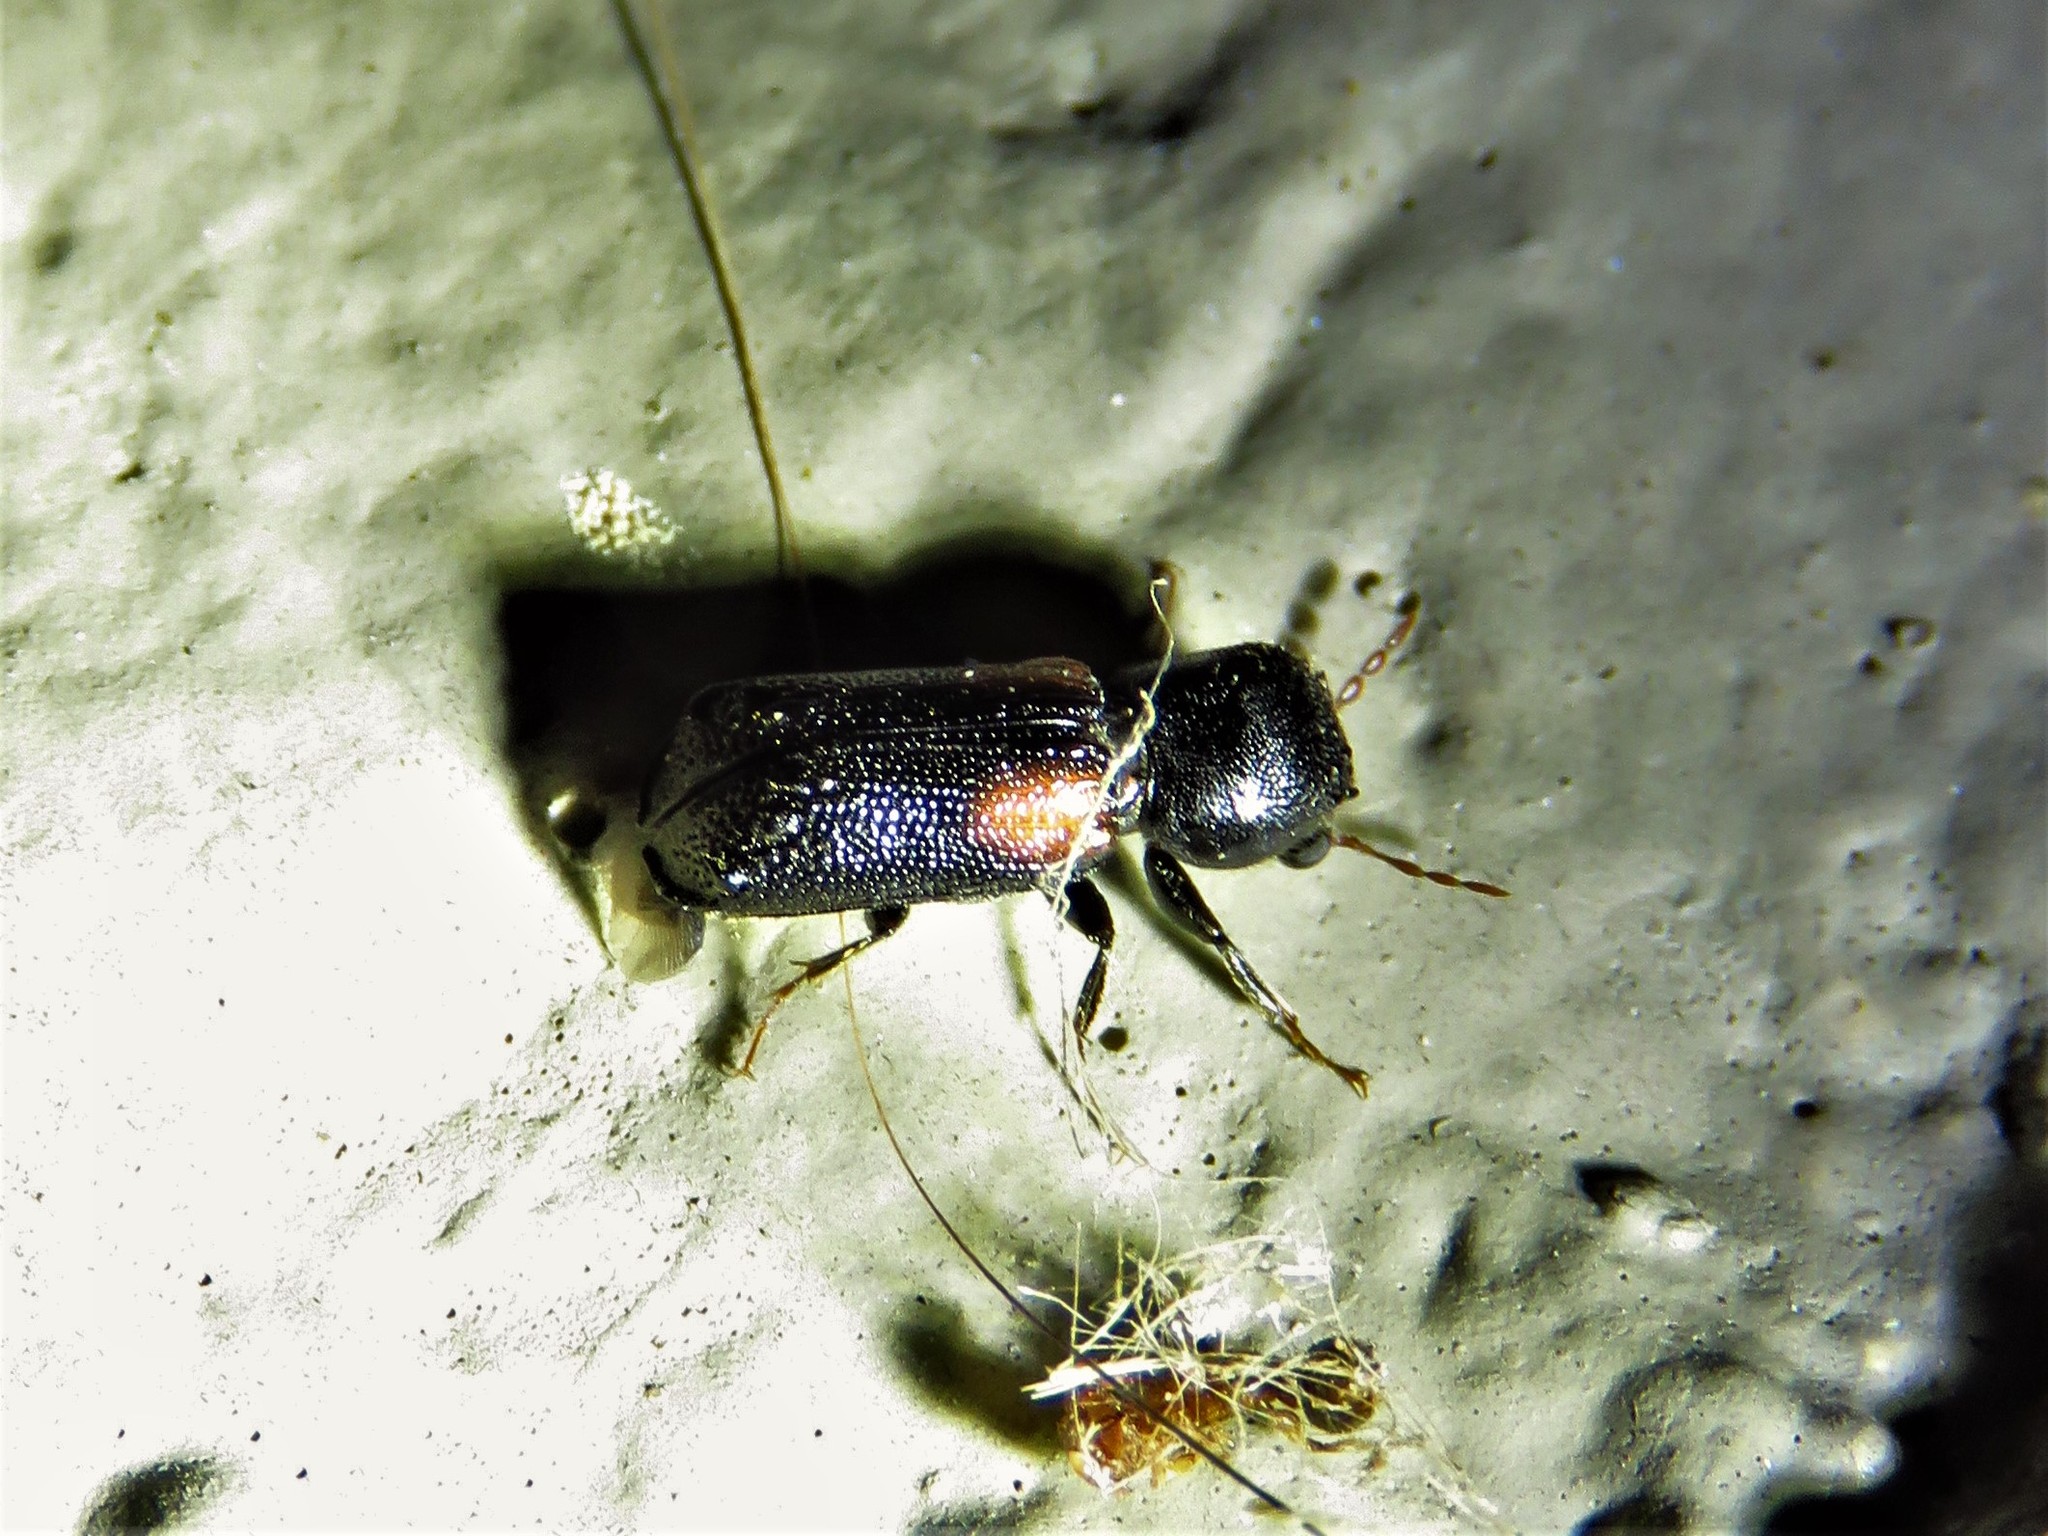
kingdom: Animalia
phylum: Arthropoda
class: Insecta
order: Coleoptera
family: Bostrichidae
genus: Xylobiops
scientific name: Xylobiops basilaris
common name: Red-shouldered bostrichid
